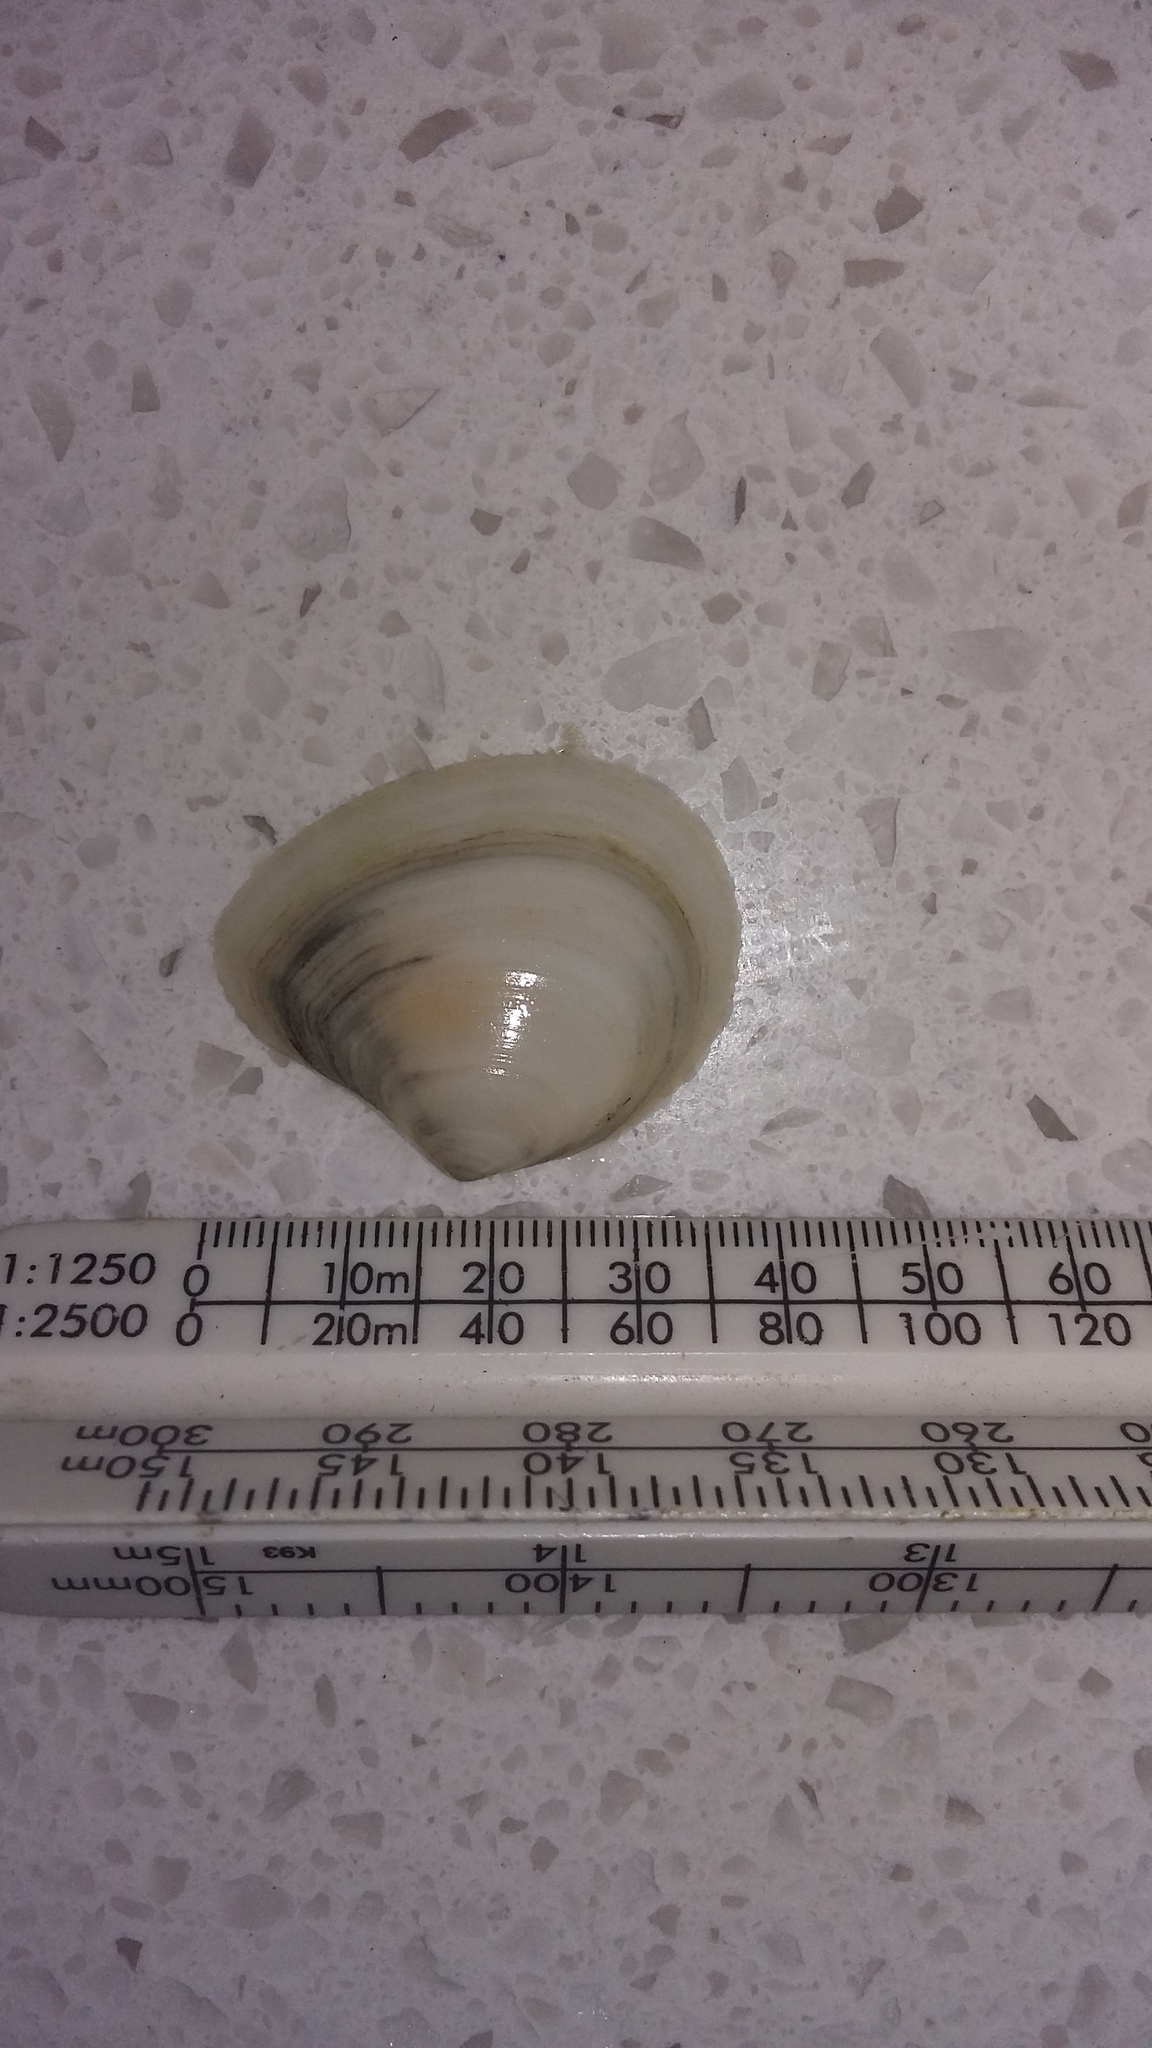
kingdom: Animalia
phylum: Mollusca
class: Bivalvia
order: Cardiida
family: Tellinidae
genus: Macomona
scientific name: Macomona liliana
